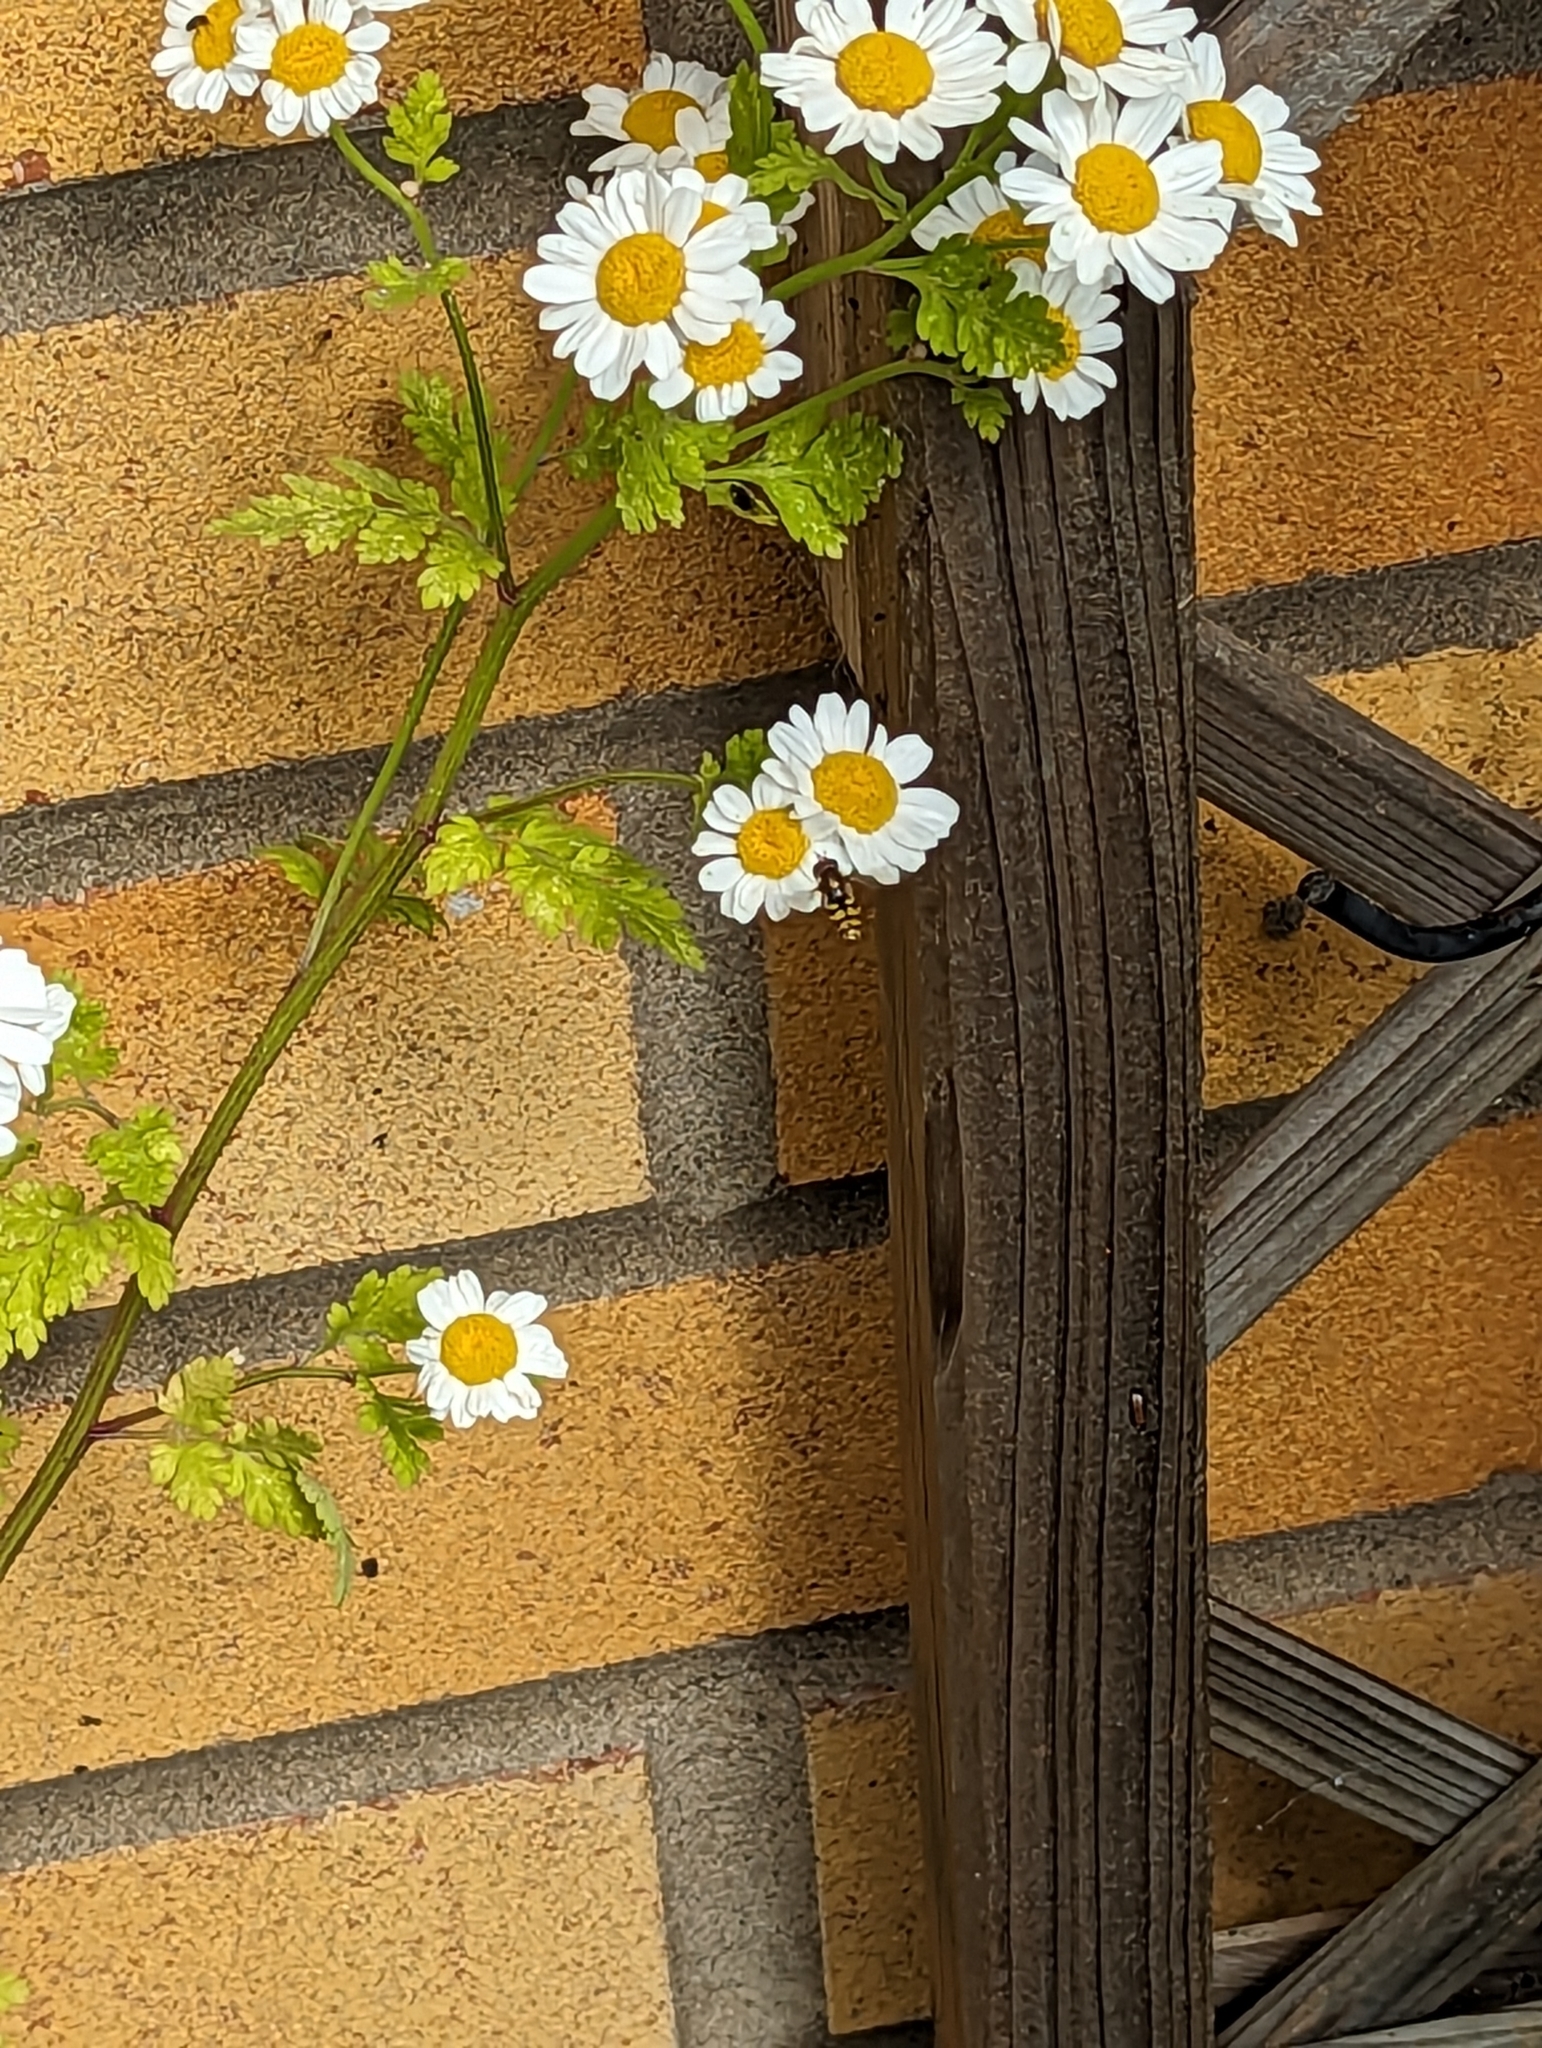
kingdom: Animalia
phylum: Arthropoda
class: Insecta
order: Diptera
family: Syrphidae
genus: Eupeodes
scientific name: Eupeodes
